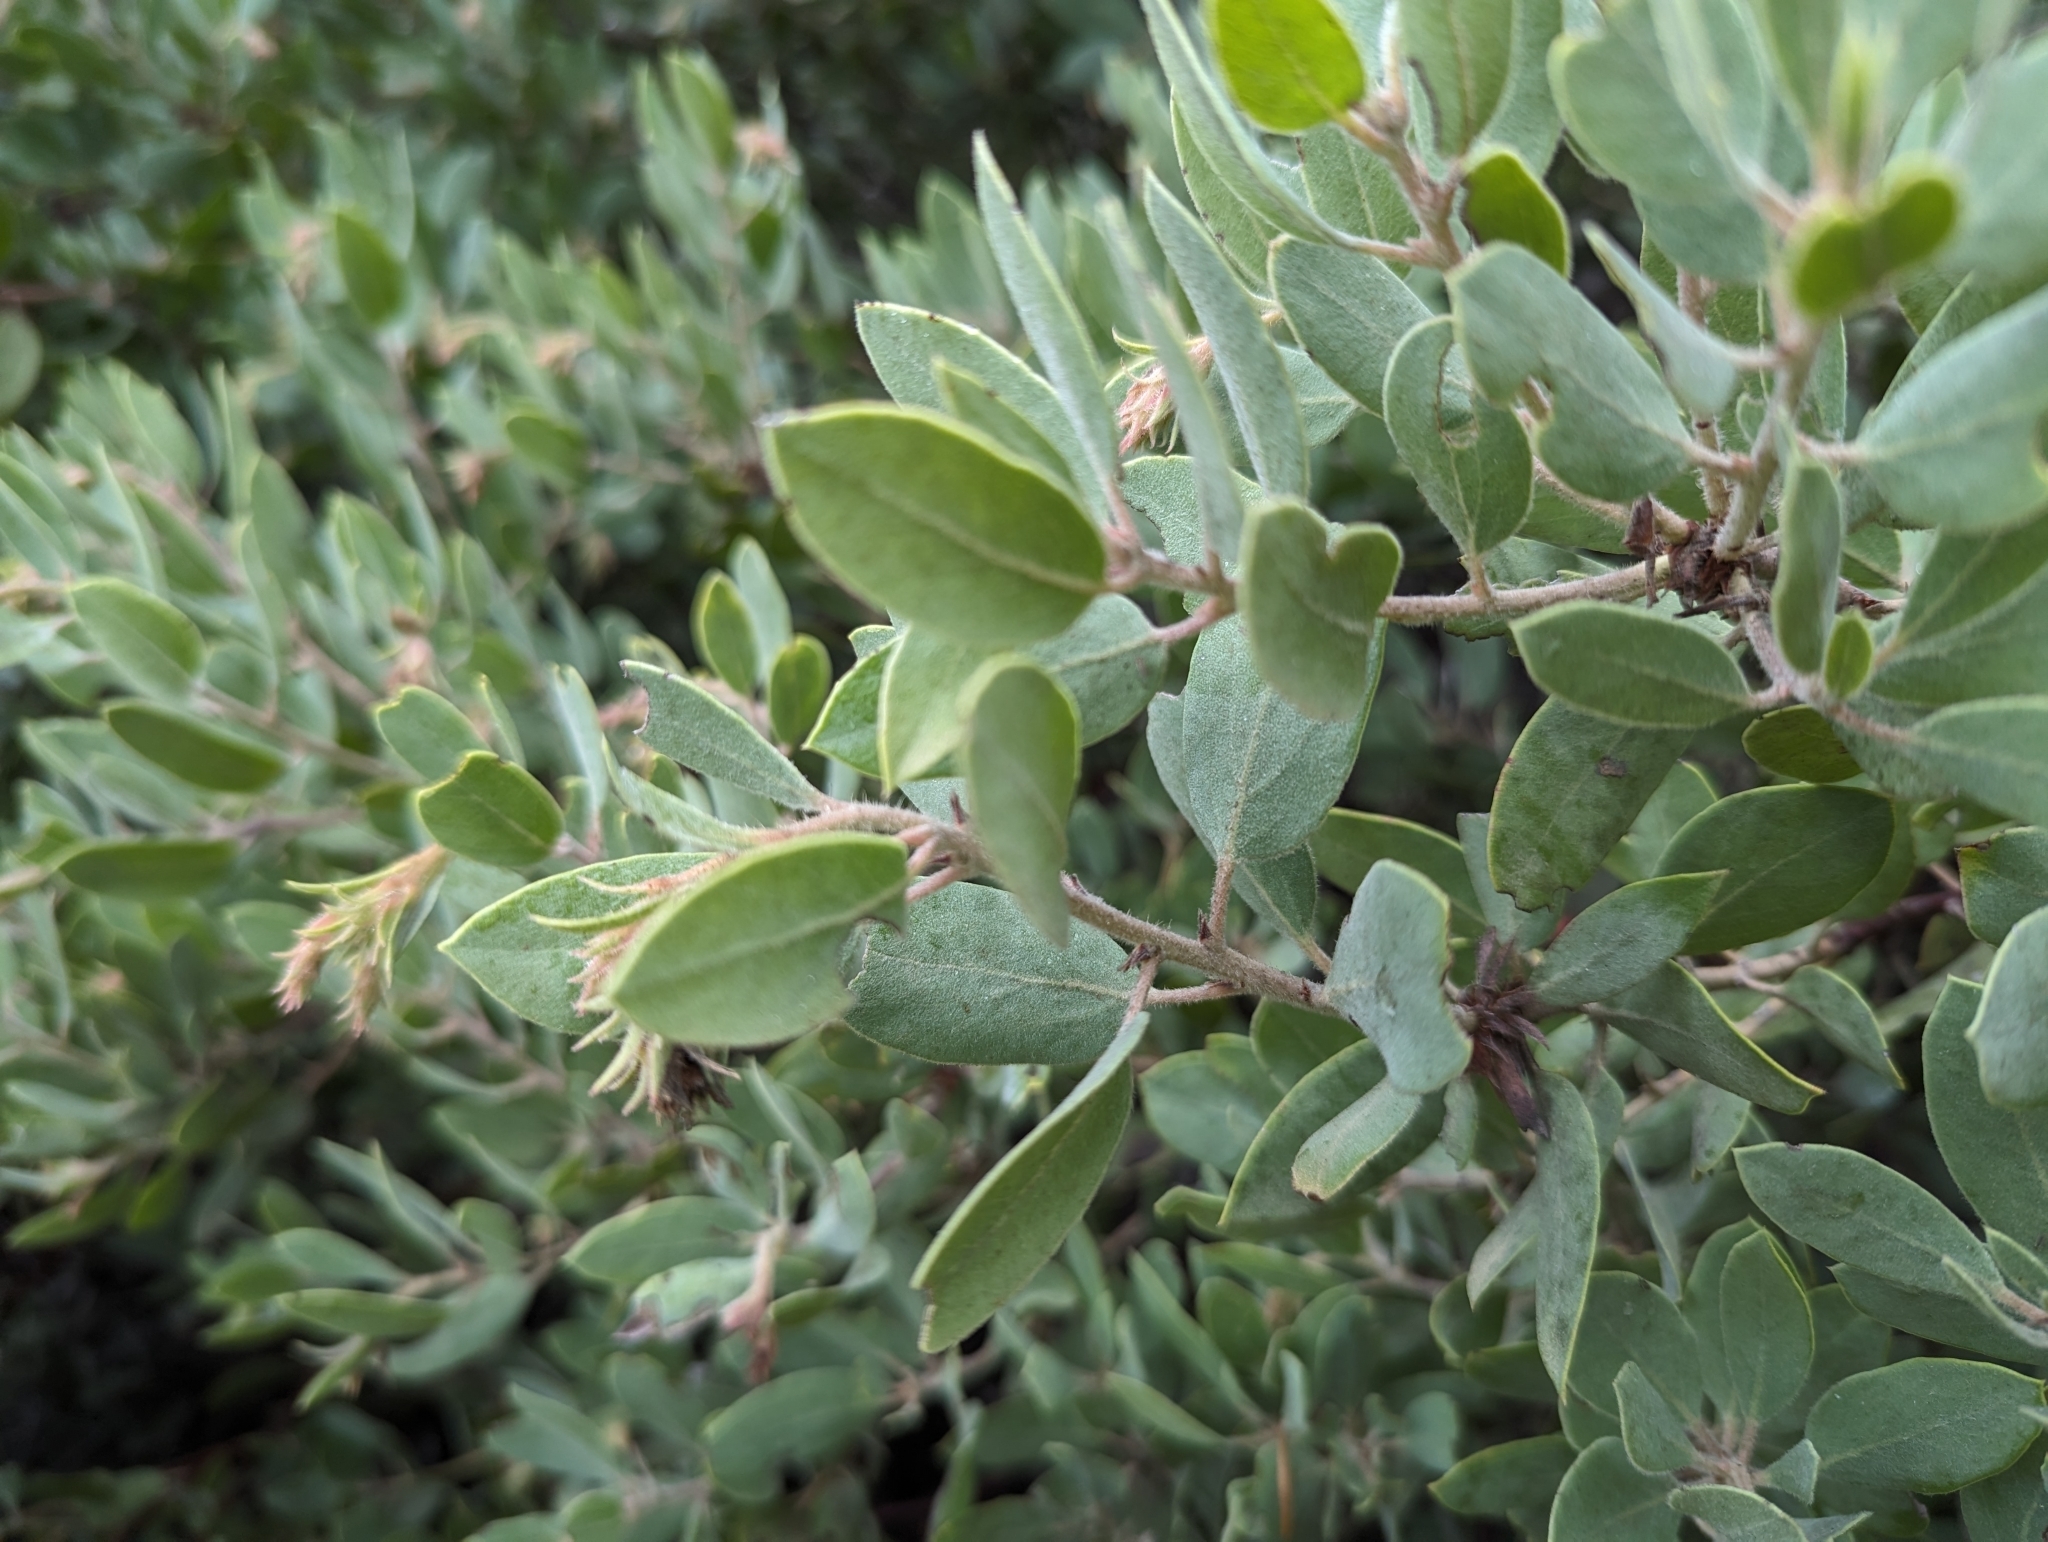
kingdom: Plantae
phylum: Tracheophyta
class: Magnoliopsida
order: Ericales
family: Ericaceae
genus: Arctostaphylos
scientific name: Arctostaphylos glandulosa
